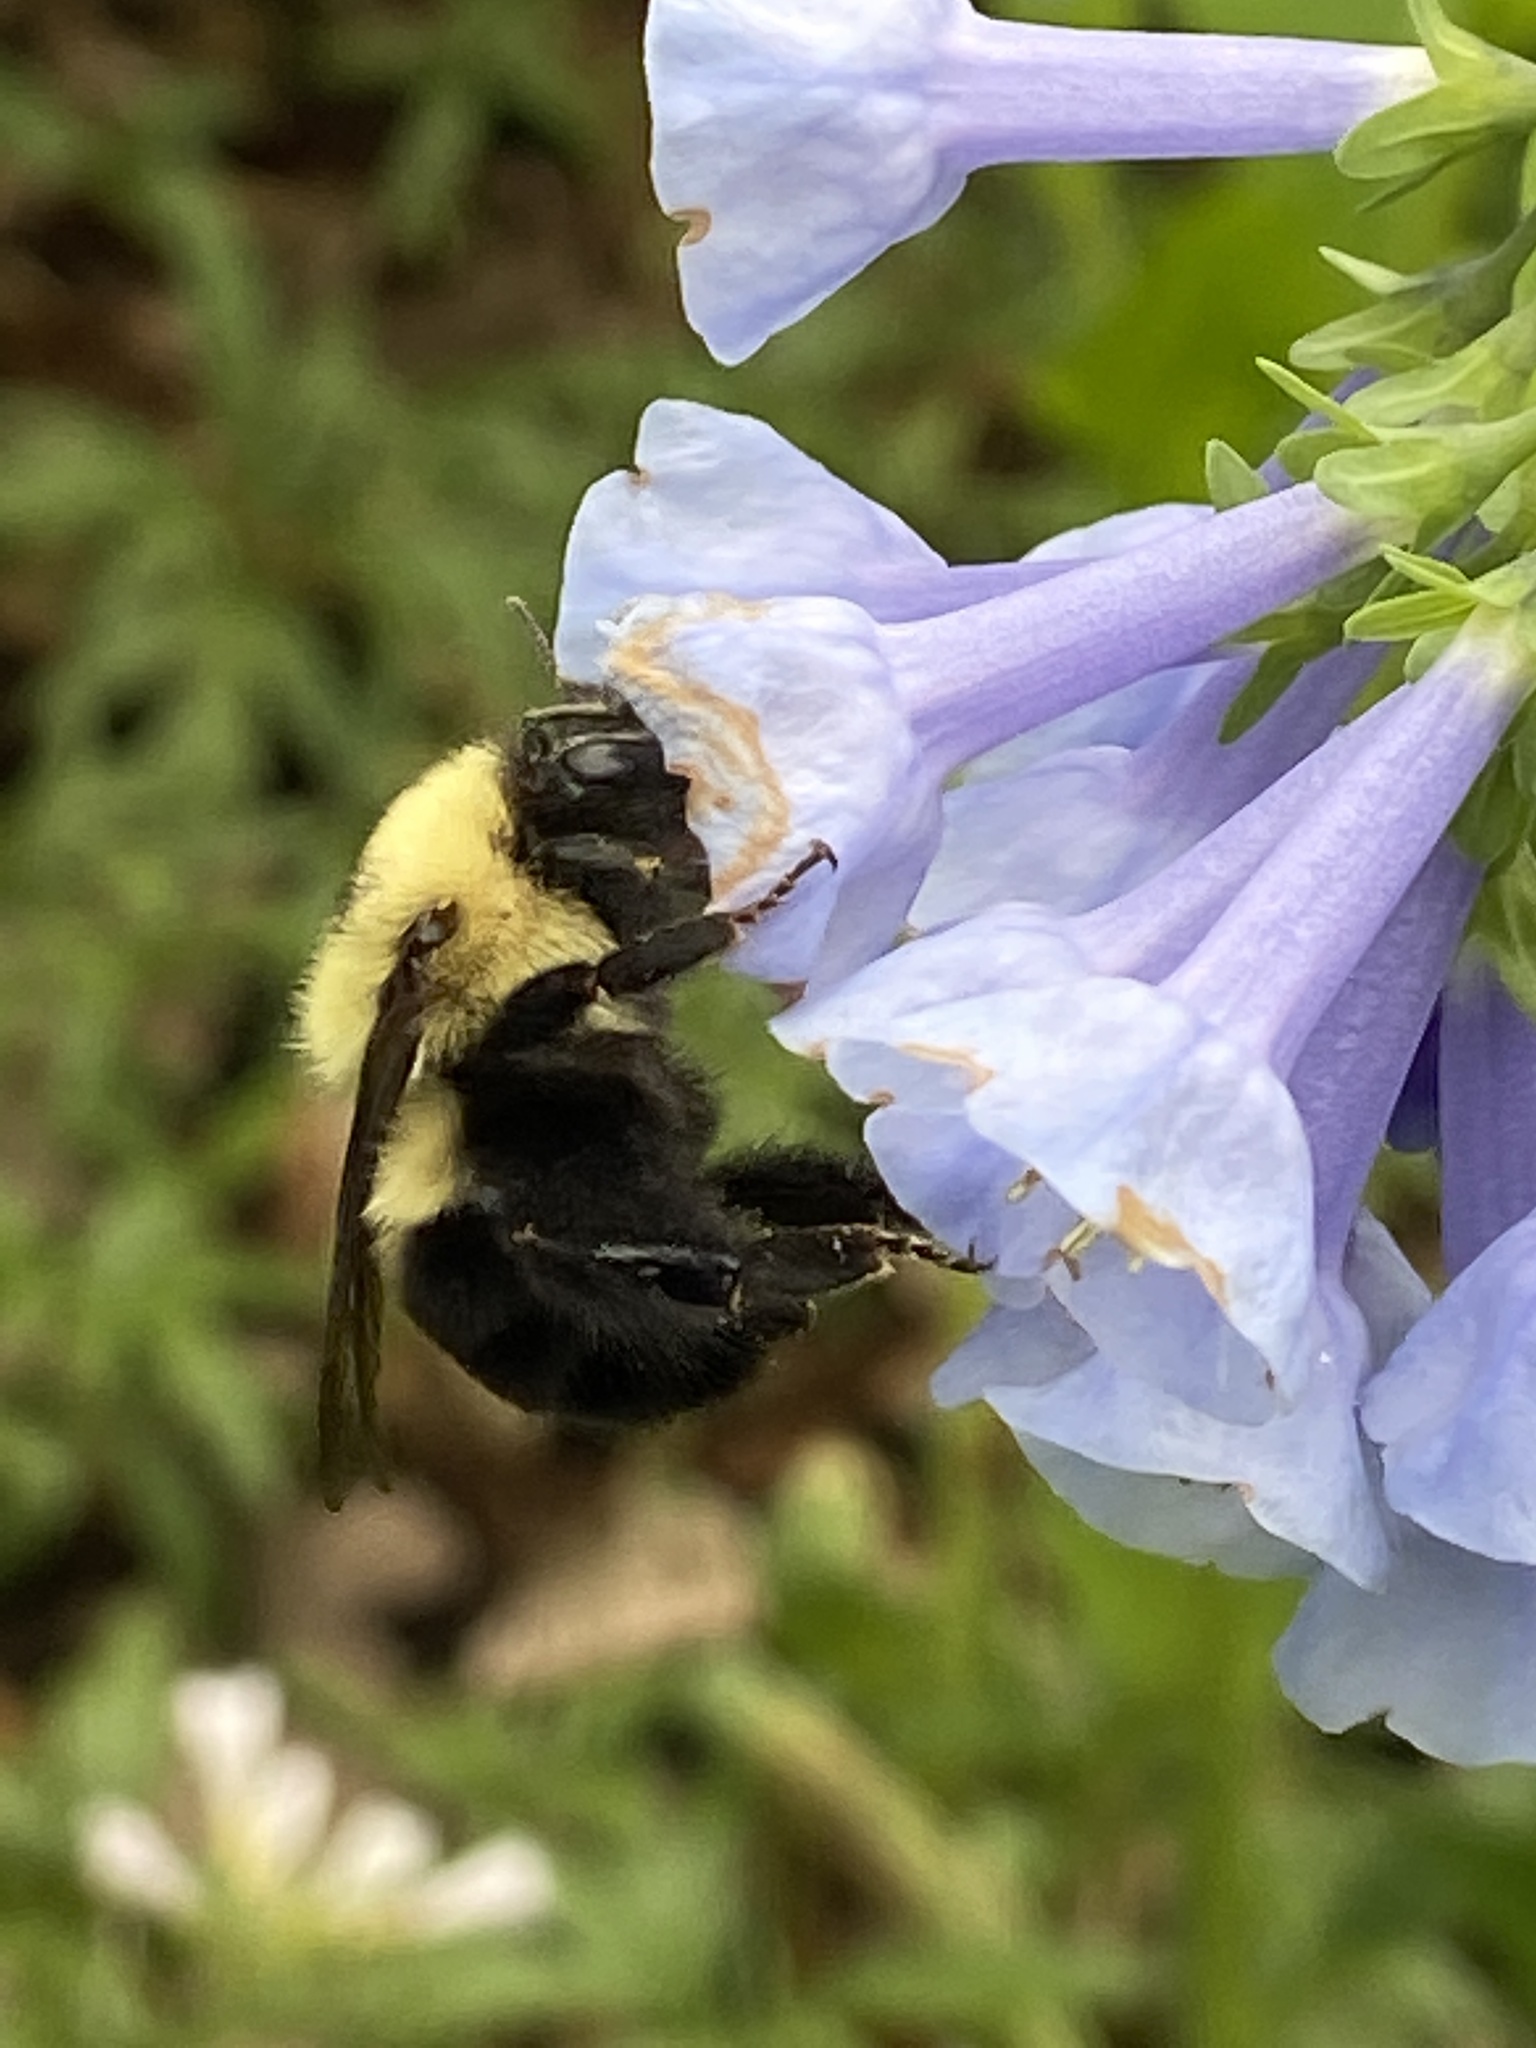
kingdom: Animalia
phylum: Arthropoda
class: Insecta
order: Hymenoptera
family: Apidae
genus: Bombus
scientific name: Bombus bimaculatus
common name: Two-spotted bumble bee
